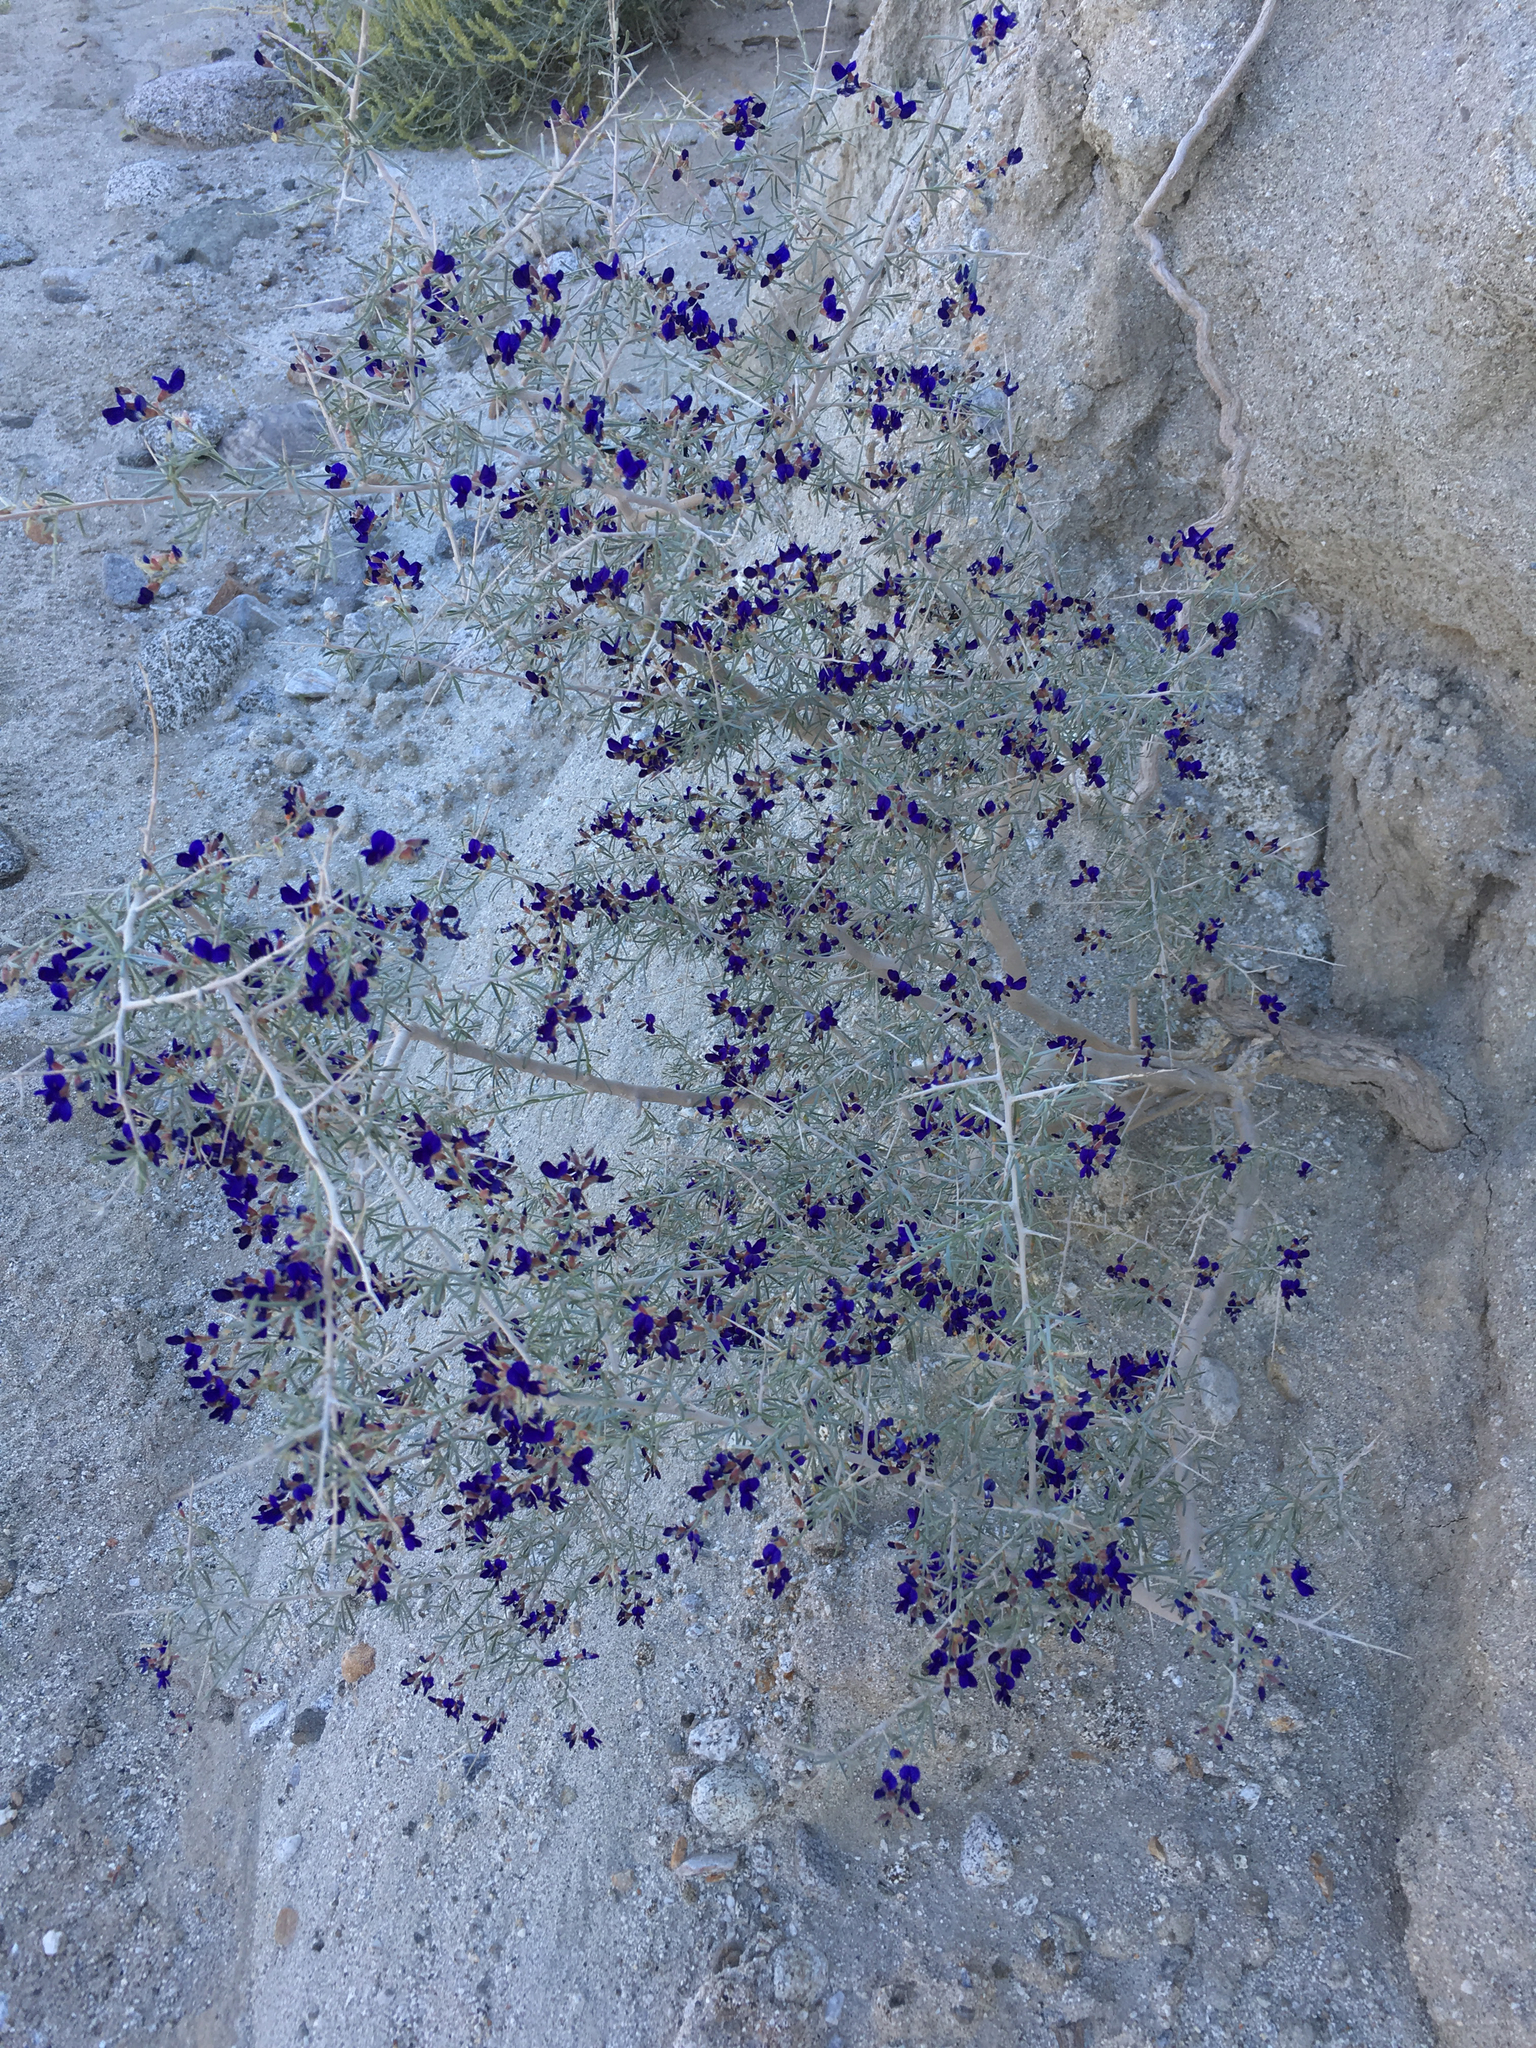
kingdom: Plantae
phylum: Tracheophyta
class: Magnoliopsida
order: Fabales
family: Fabaceae
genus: Psorothamnus
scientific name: Psorothamnus schottii
